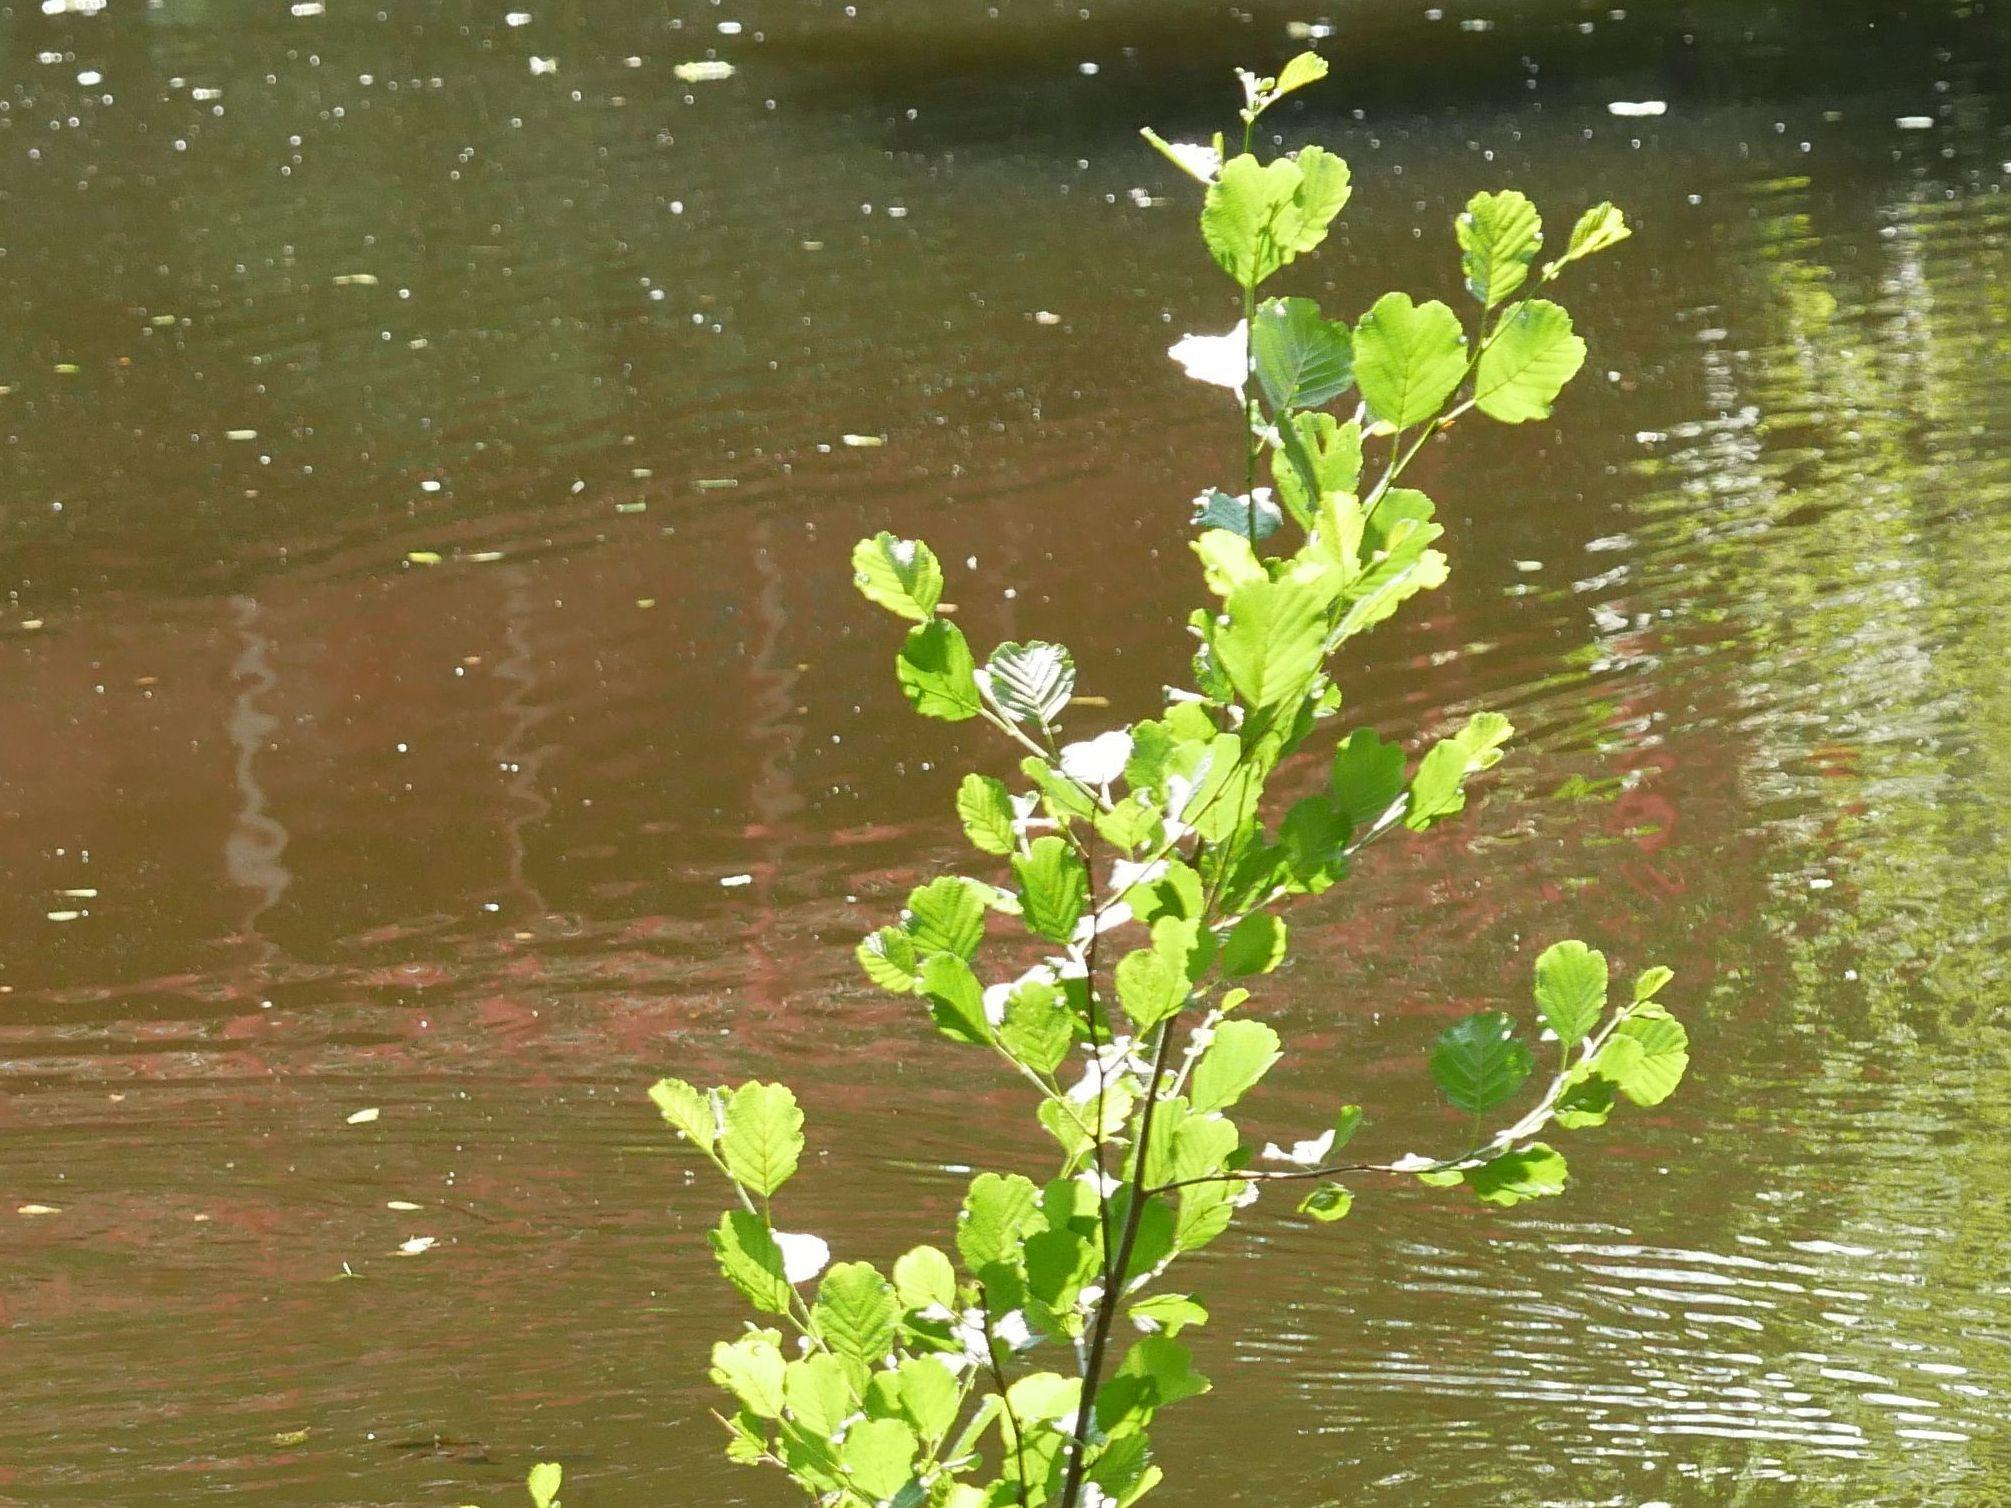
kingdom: Plantae
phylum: Tracheophyta
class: Magnoliopsida
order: Fagales
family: Betulaceae
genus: Alnus
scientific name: Alnus glutinosa
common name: Black alder
